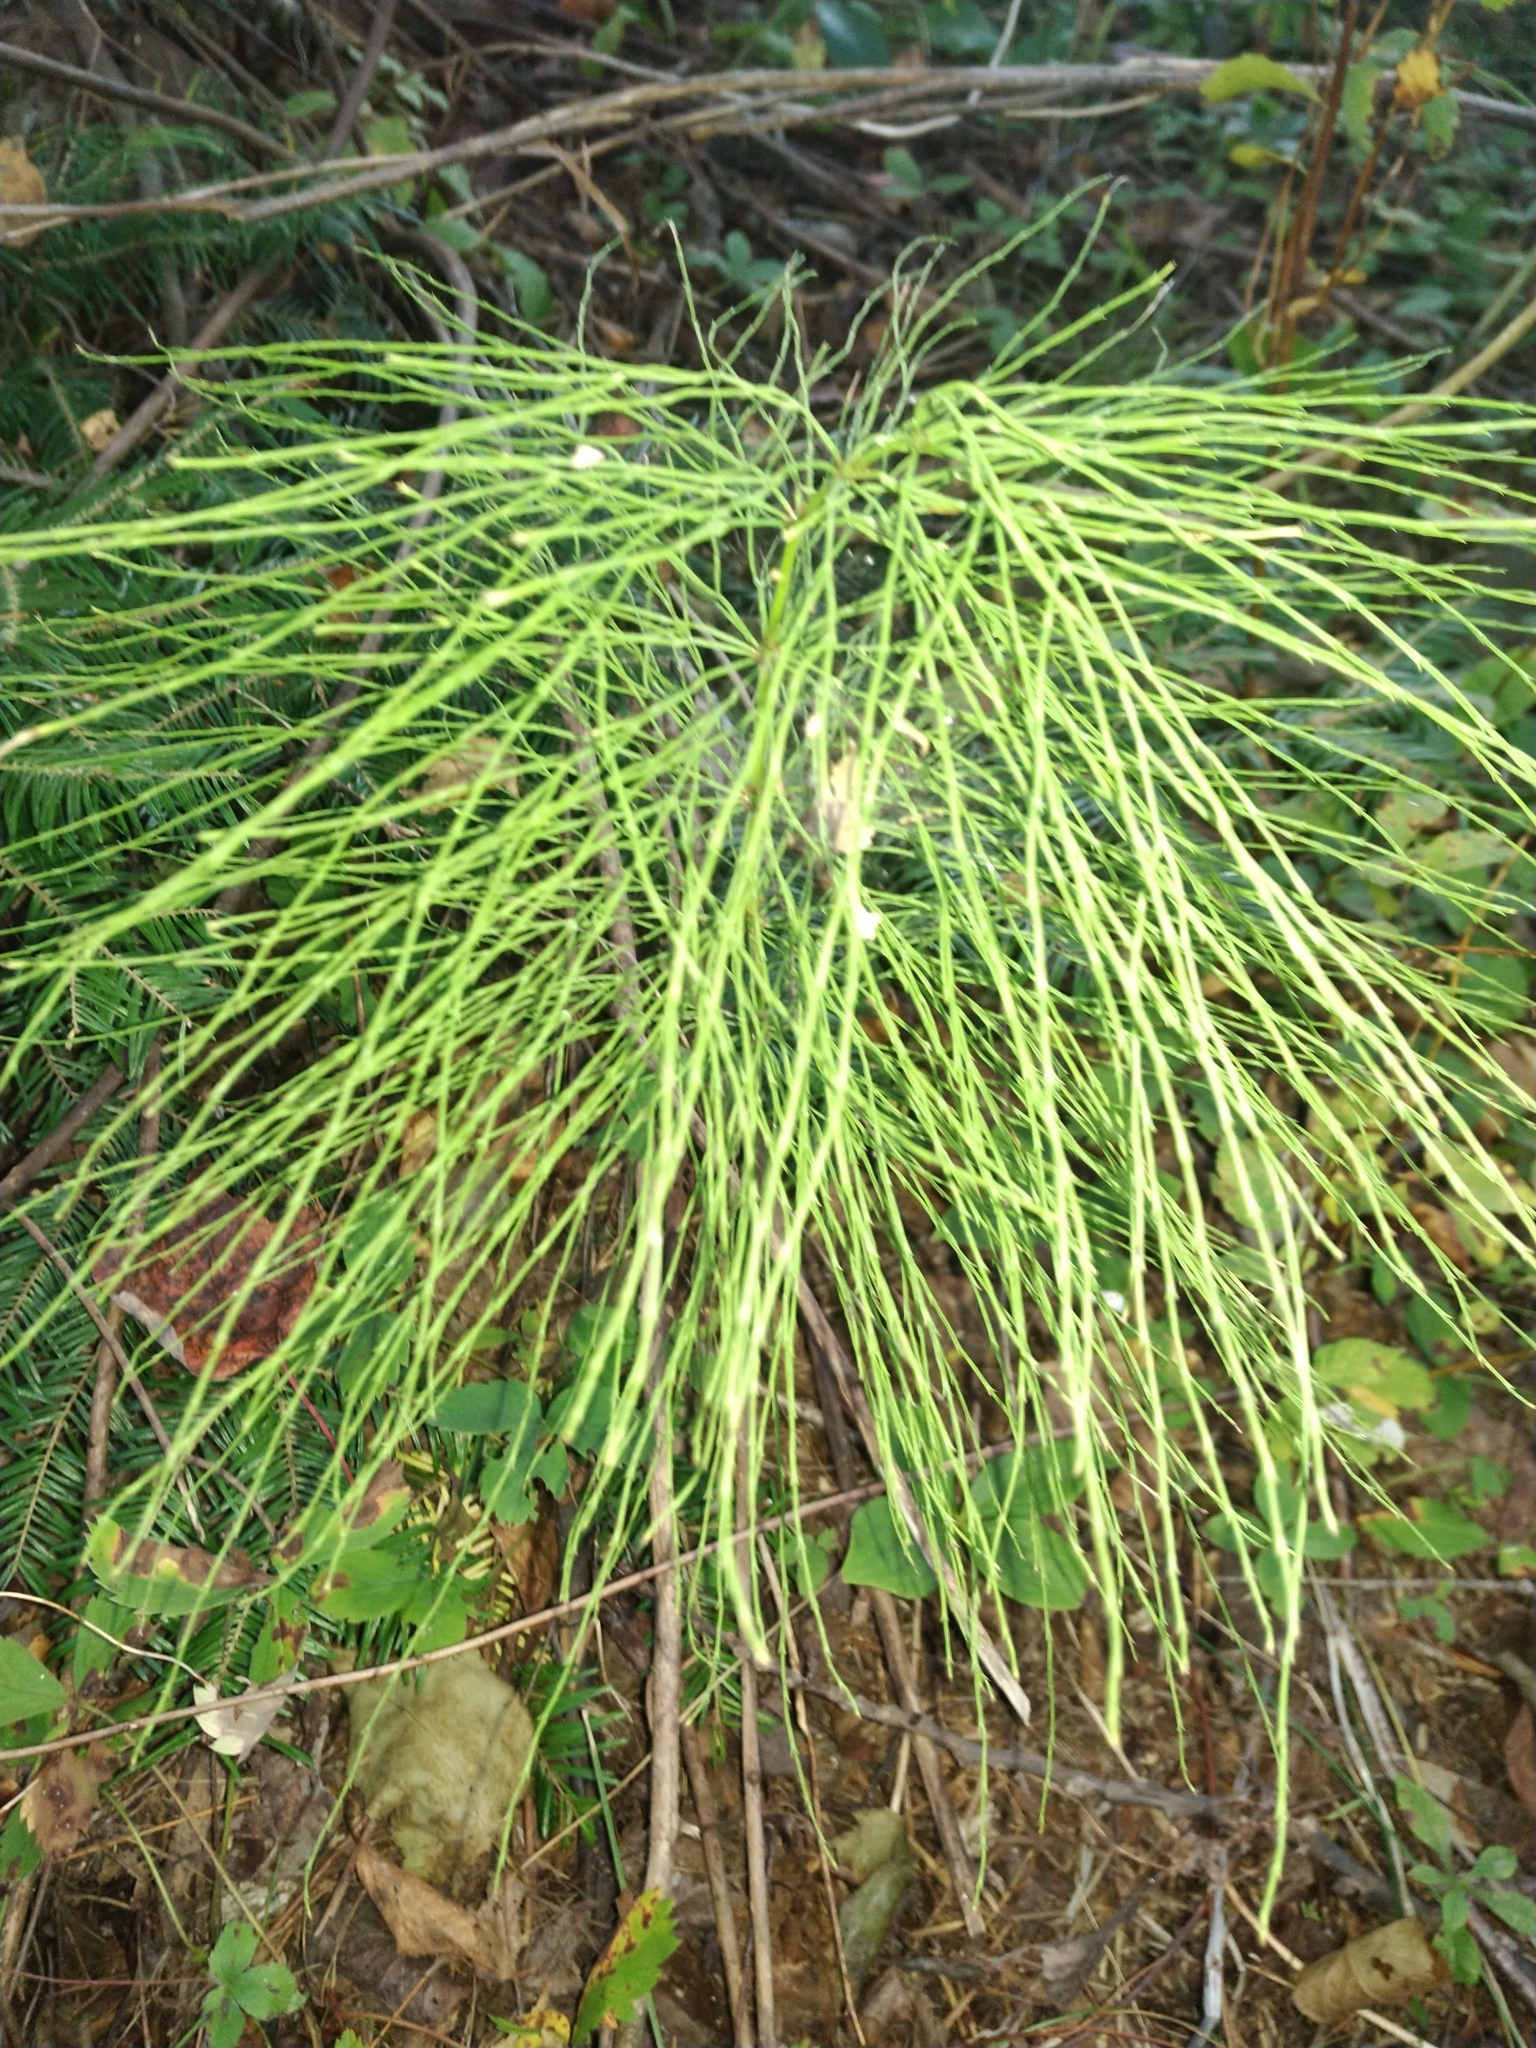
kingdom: Plantae
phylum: Tracheophyta
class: Polypodiopsida
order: Equisetales
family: Equisetaceae
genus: Equisetum
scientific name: Equisetum sylvaticum
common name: Wood horsetail
